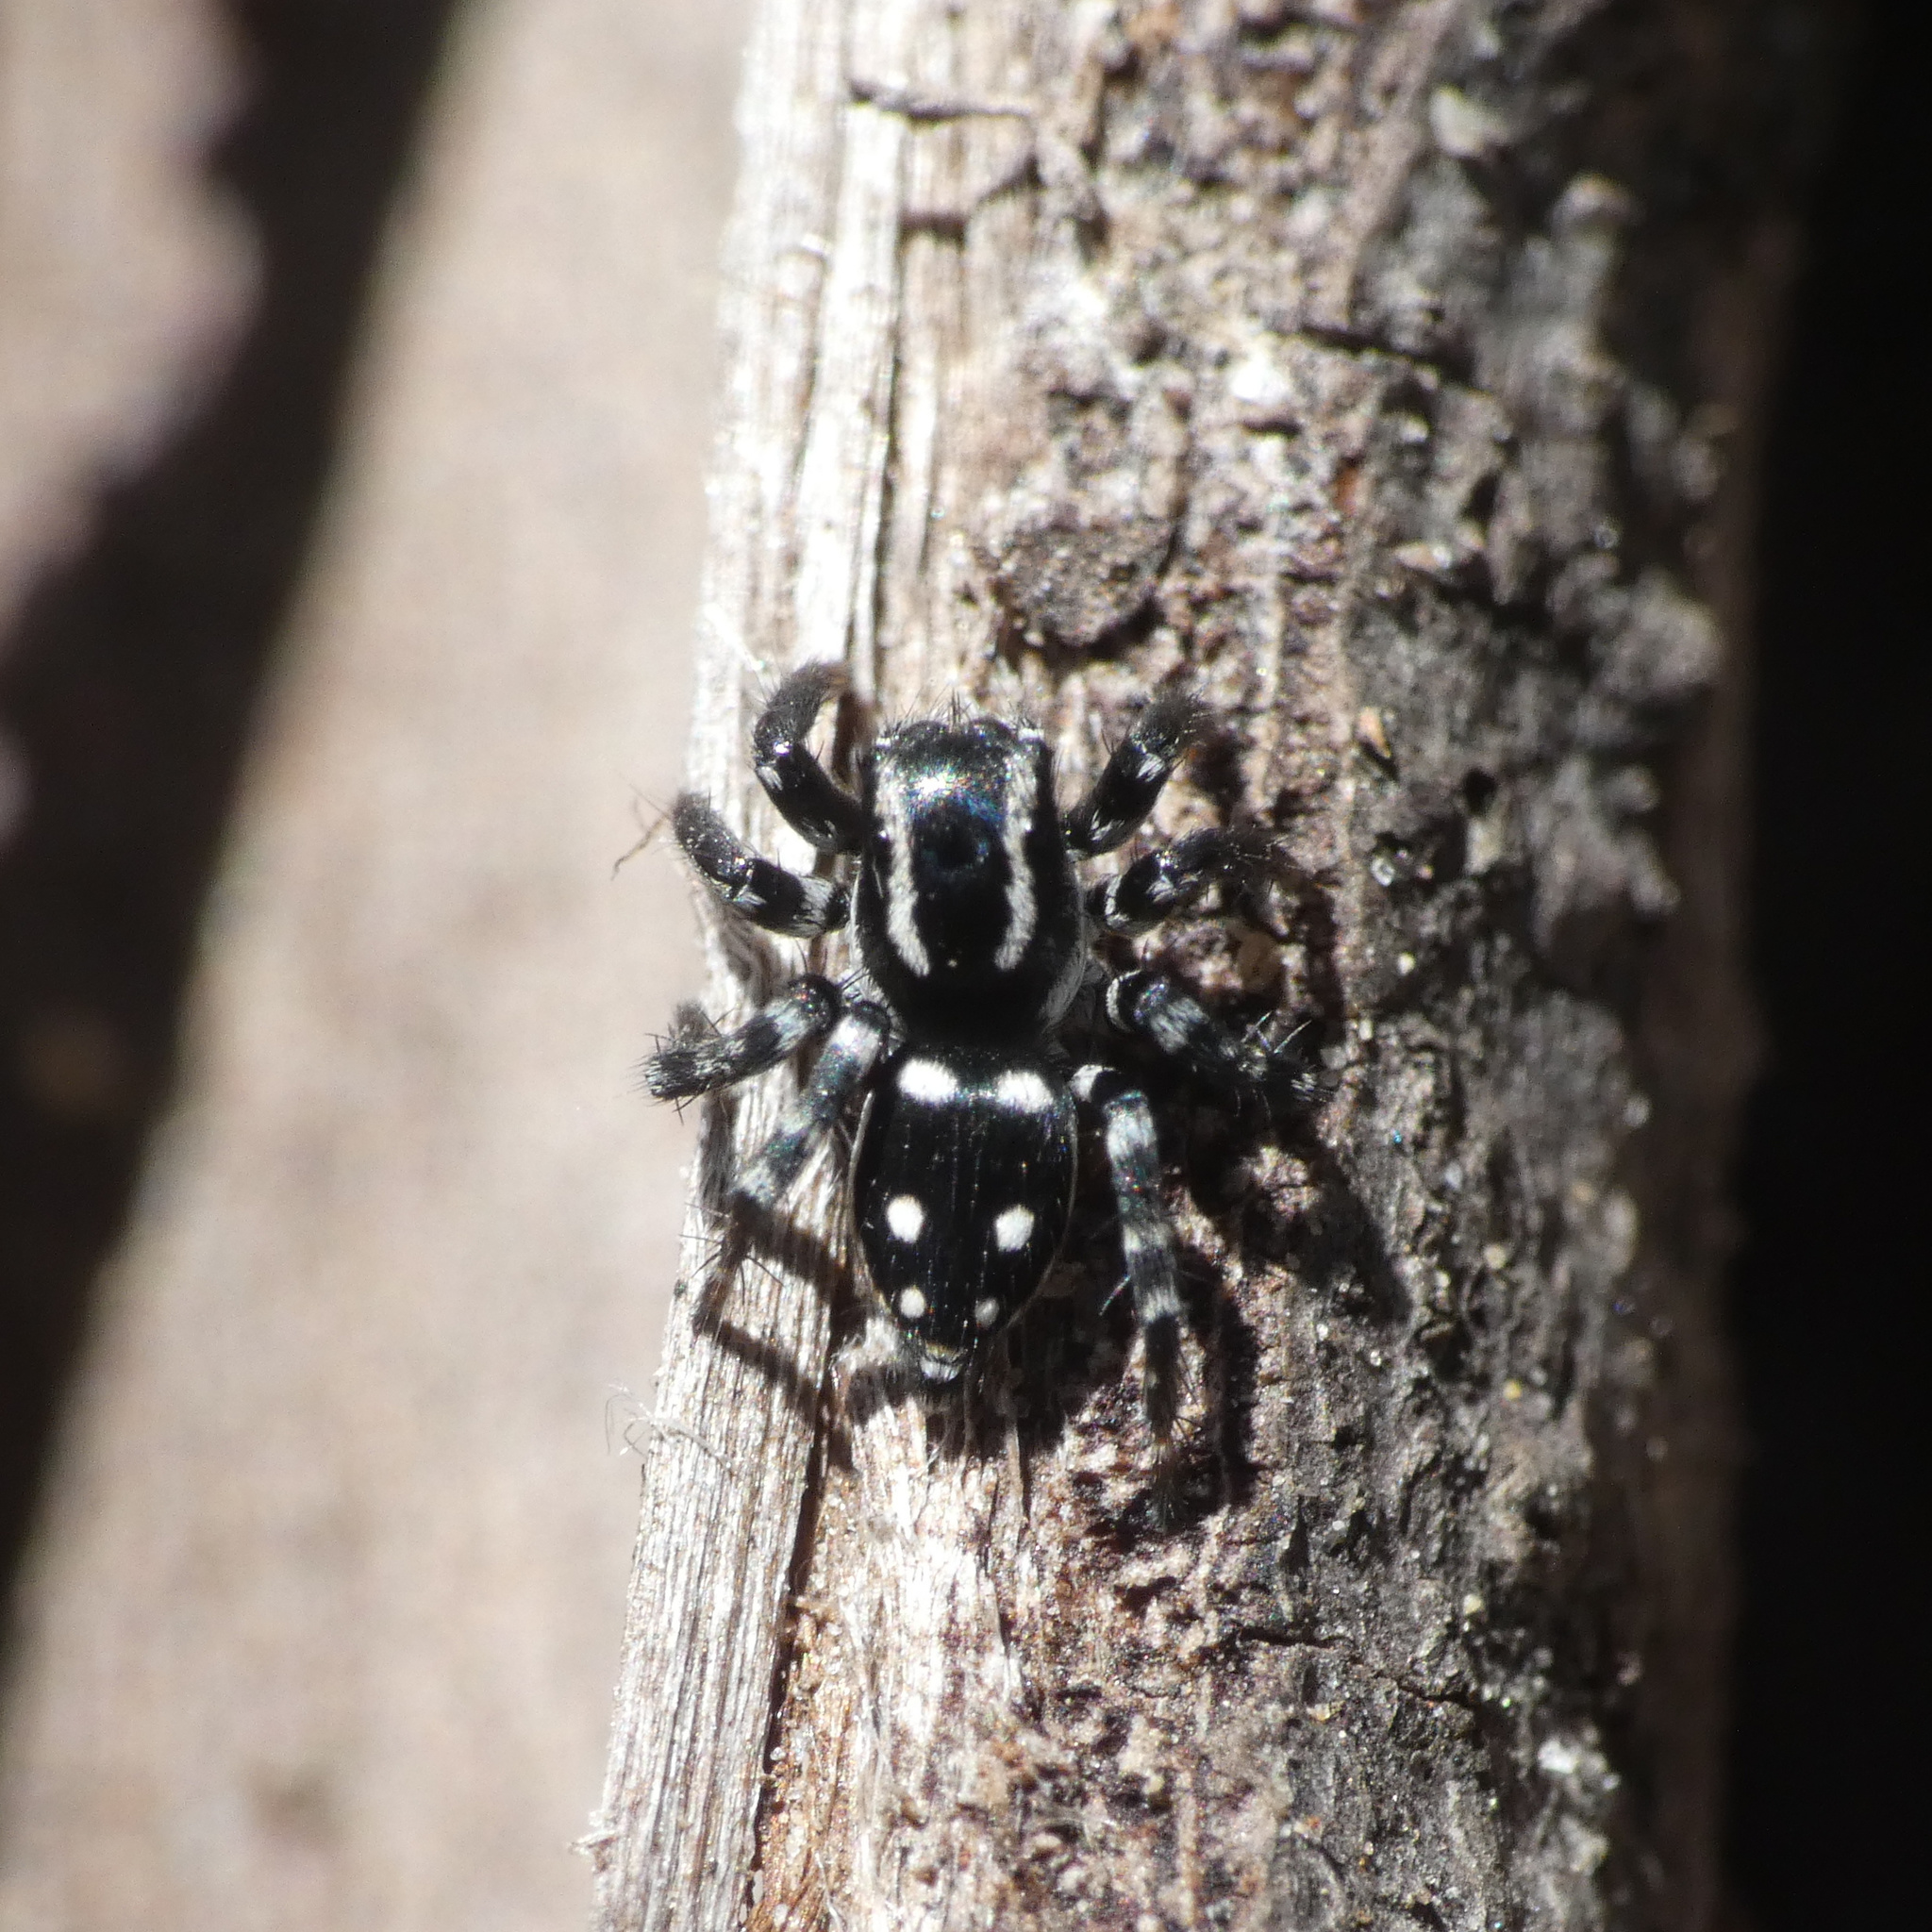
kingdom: Animalia
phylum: Arthropoda
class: Arachnida
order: Araneae
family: Salticidae
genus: Stenaelurillus
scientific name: Stenaelurillus guttatus
